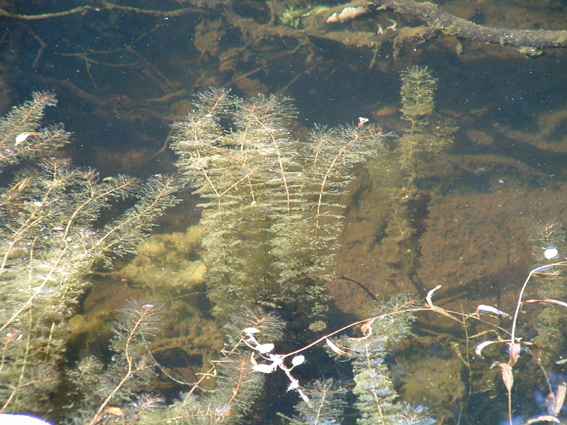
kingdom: Plantae
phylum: Tracheophyta
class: Magnoliopsida
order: Saxifragales
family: Haloragaceae
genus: Myriophyllum
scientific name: Myriophyllum robustum
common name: Stout water milfoil
